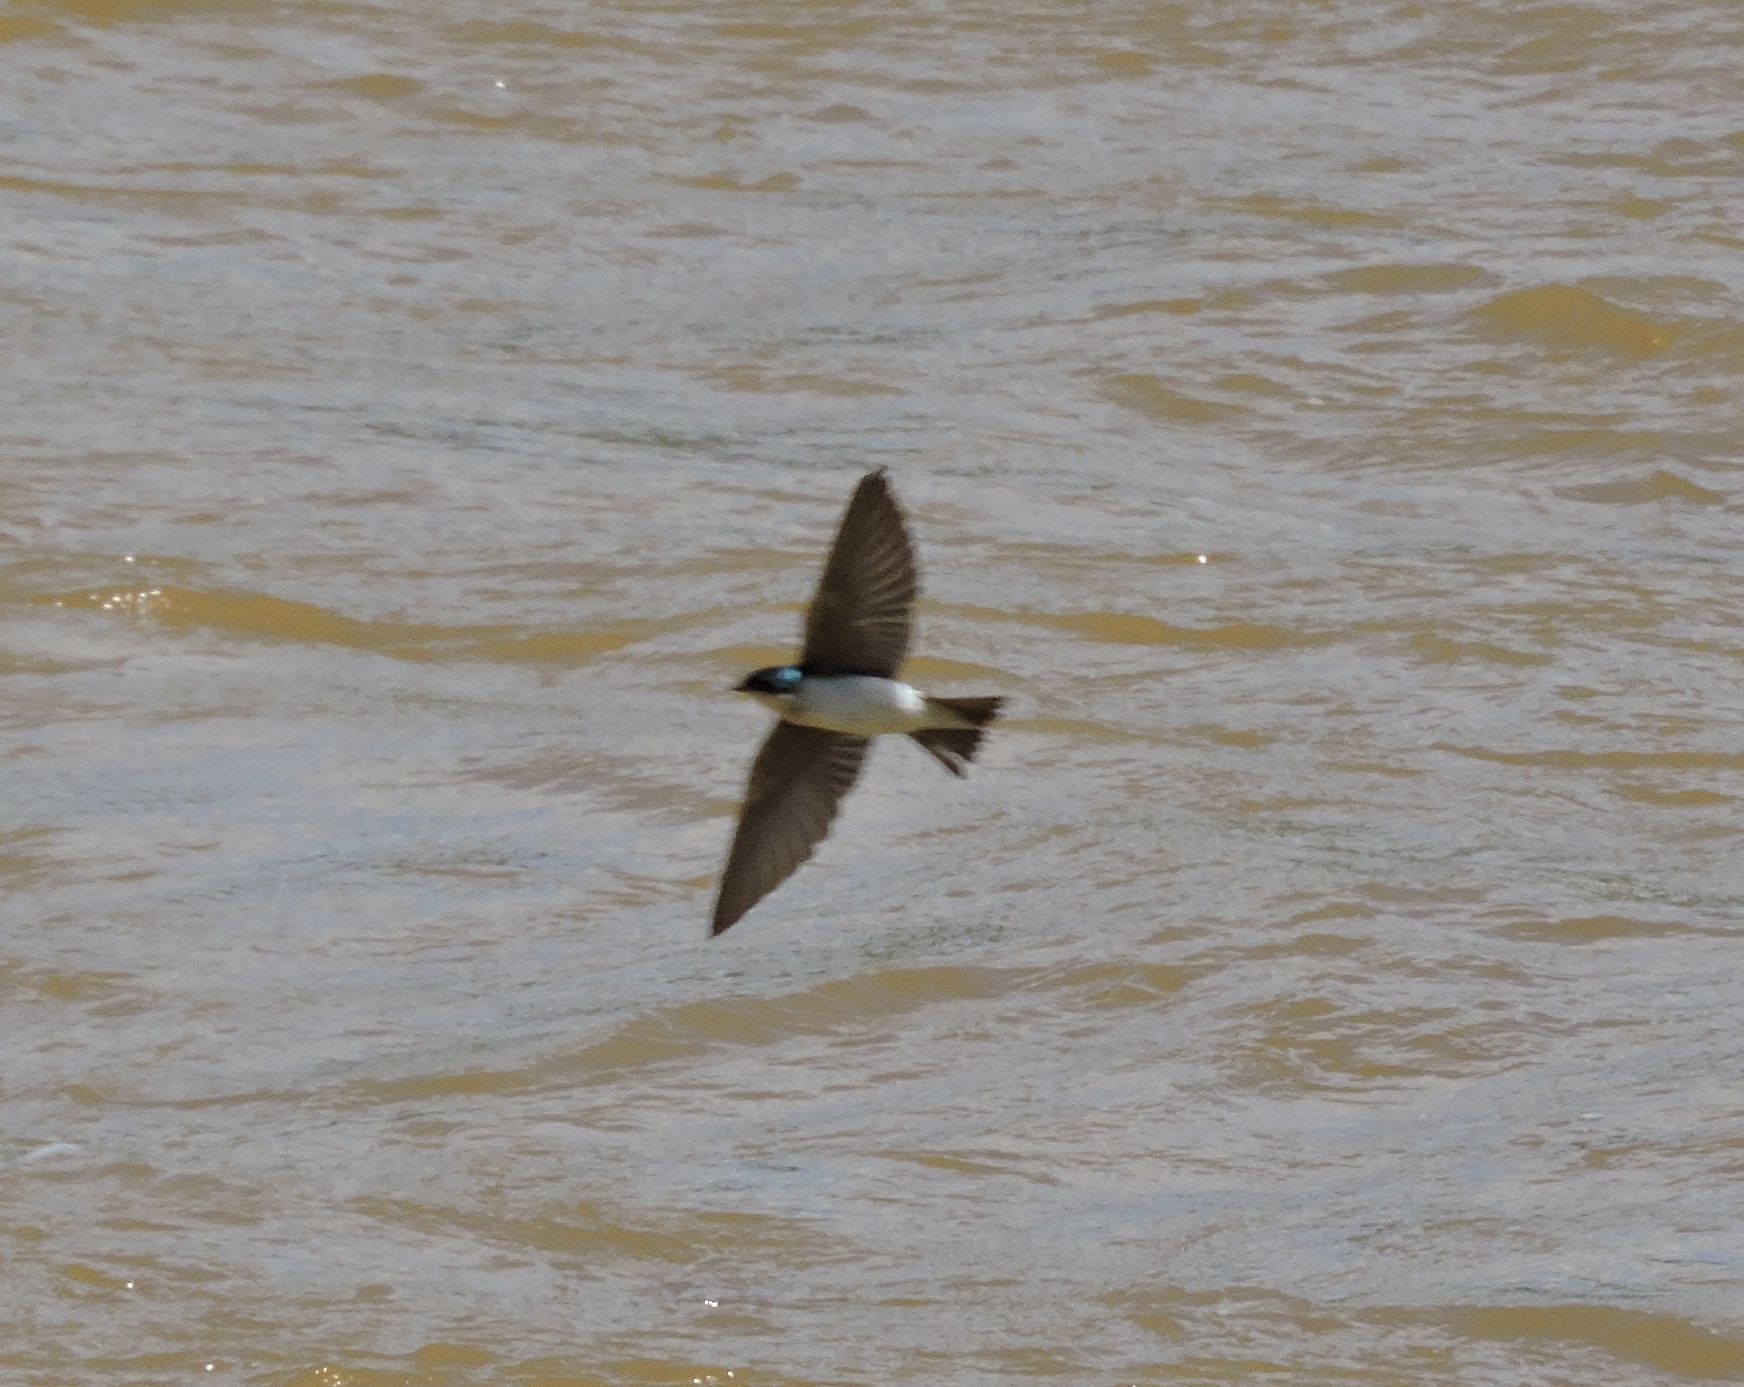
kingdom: Animalia
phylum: Chordata
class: Aves
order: Passeriformes
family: Hirundinidae
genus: Tachycineta
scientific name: Tachycineta bicolor
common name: Tree swallow
